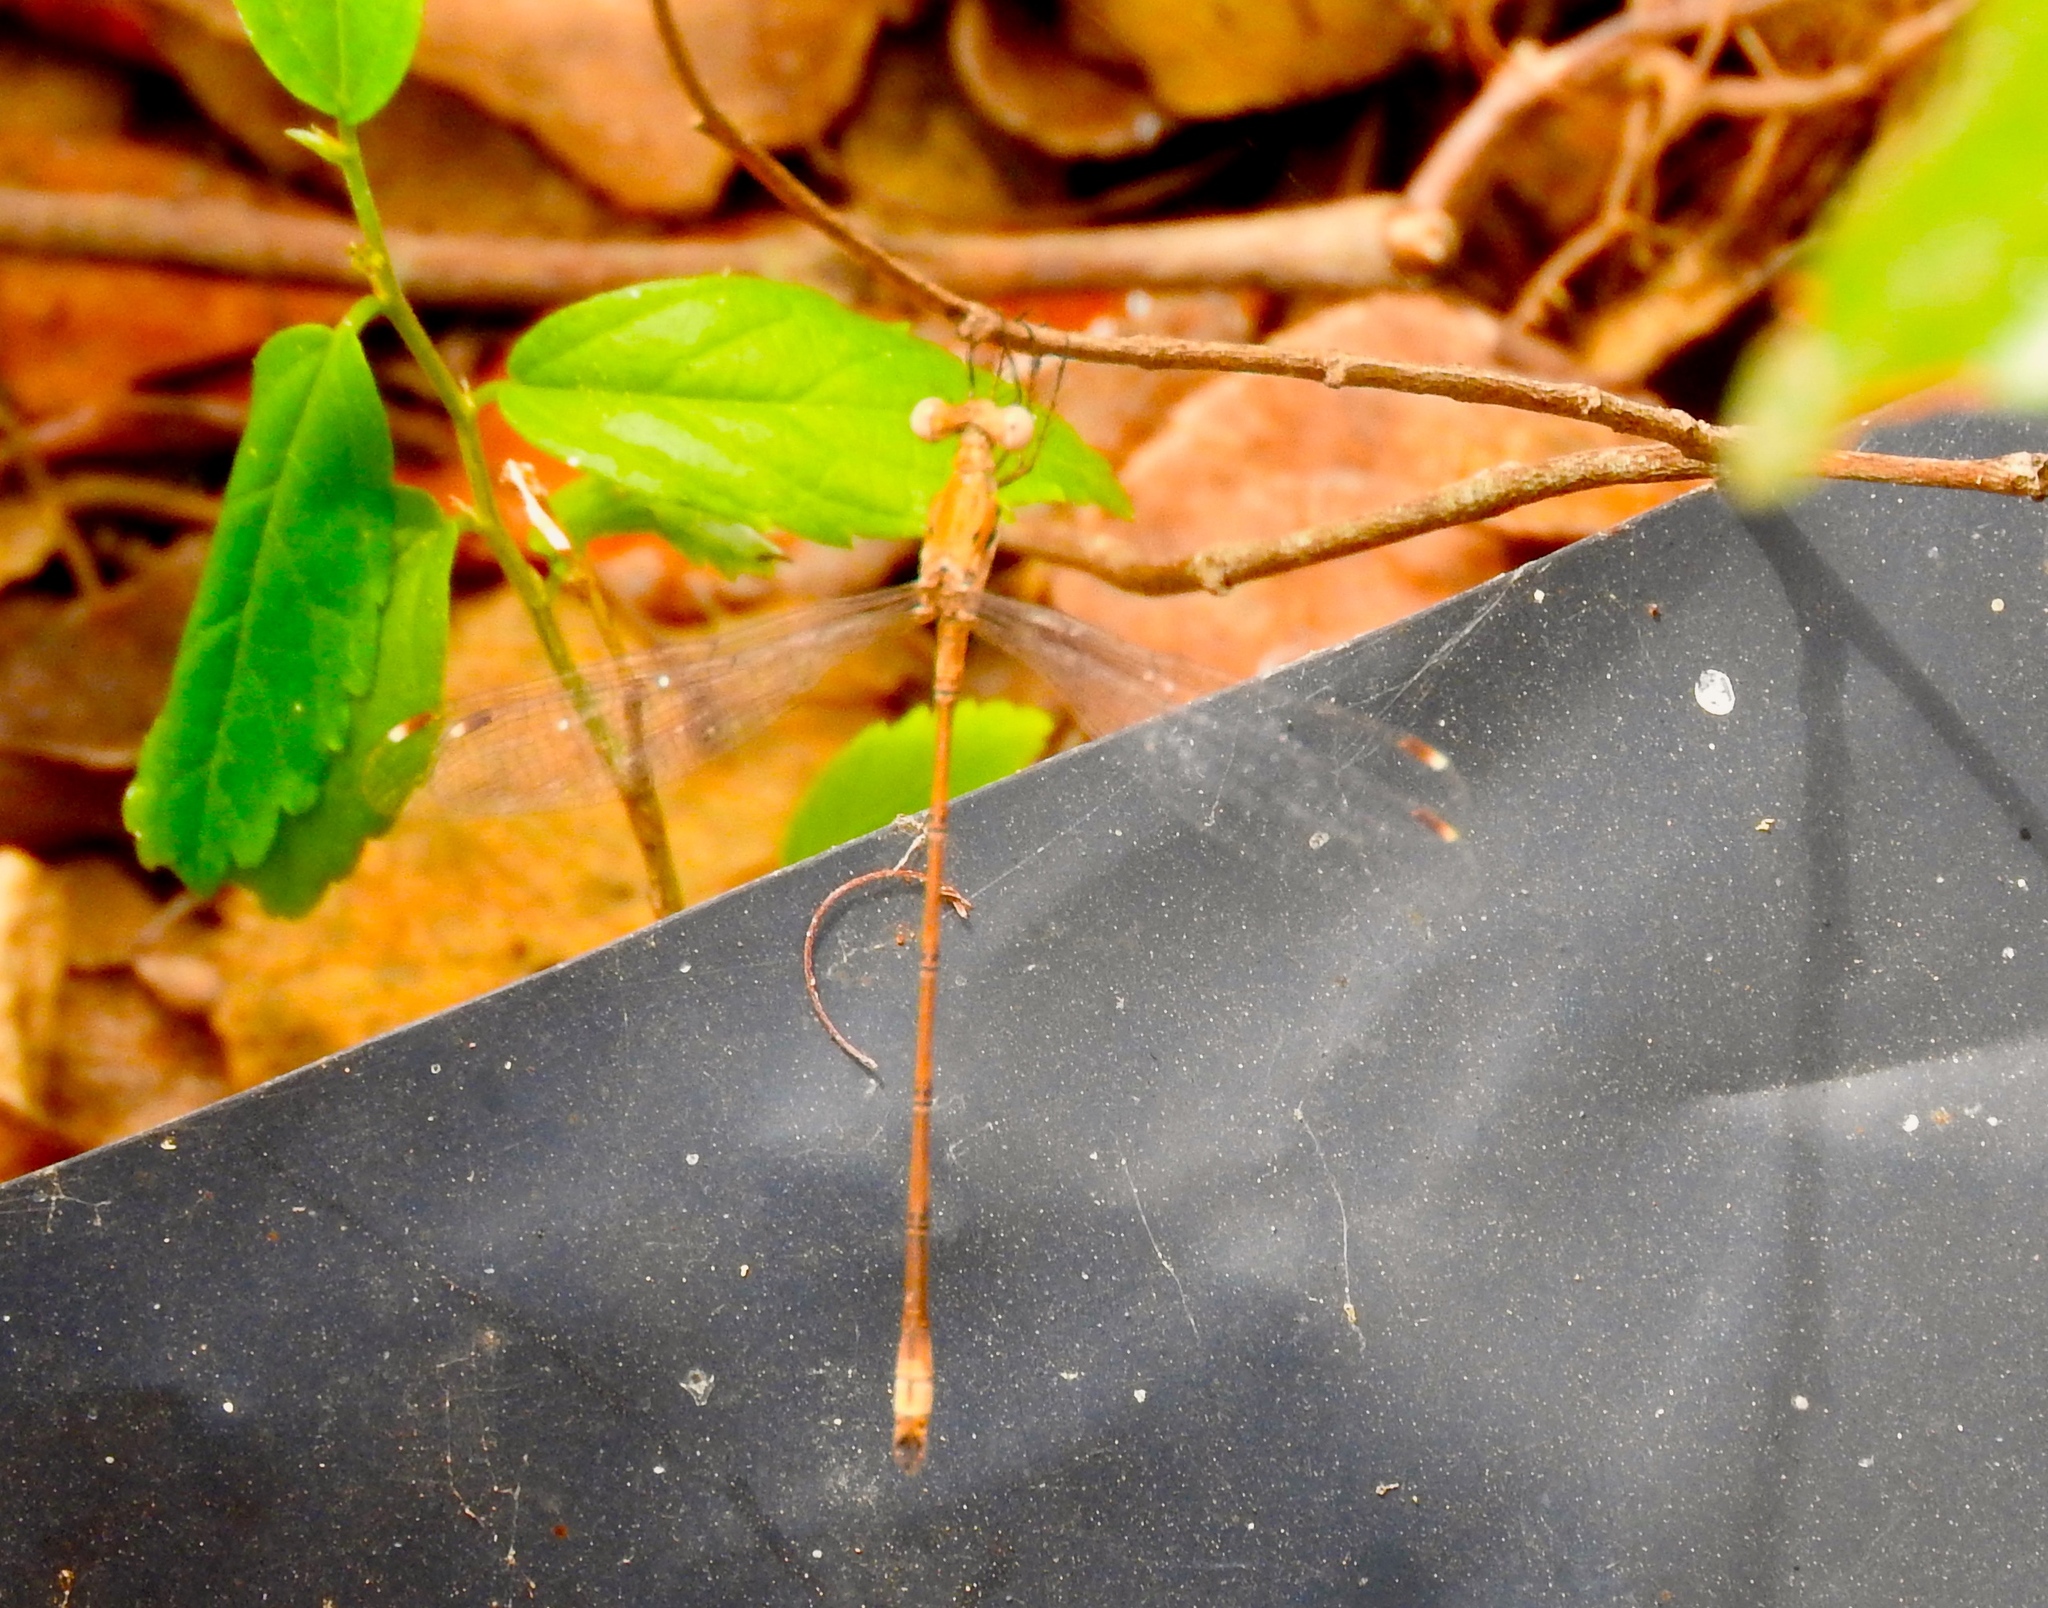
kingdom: Animalia
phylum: Arthropoda
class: Insecta
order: Odonata
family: Lestidae
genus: Lestes
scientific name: Lestes sigma
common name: Chalky spreadwing
